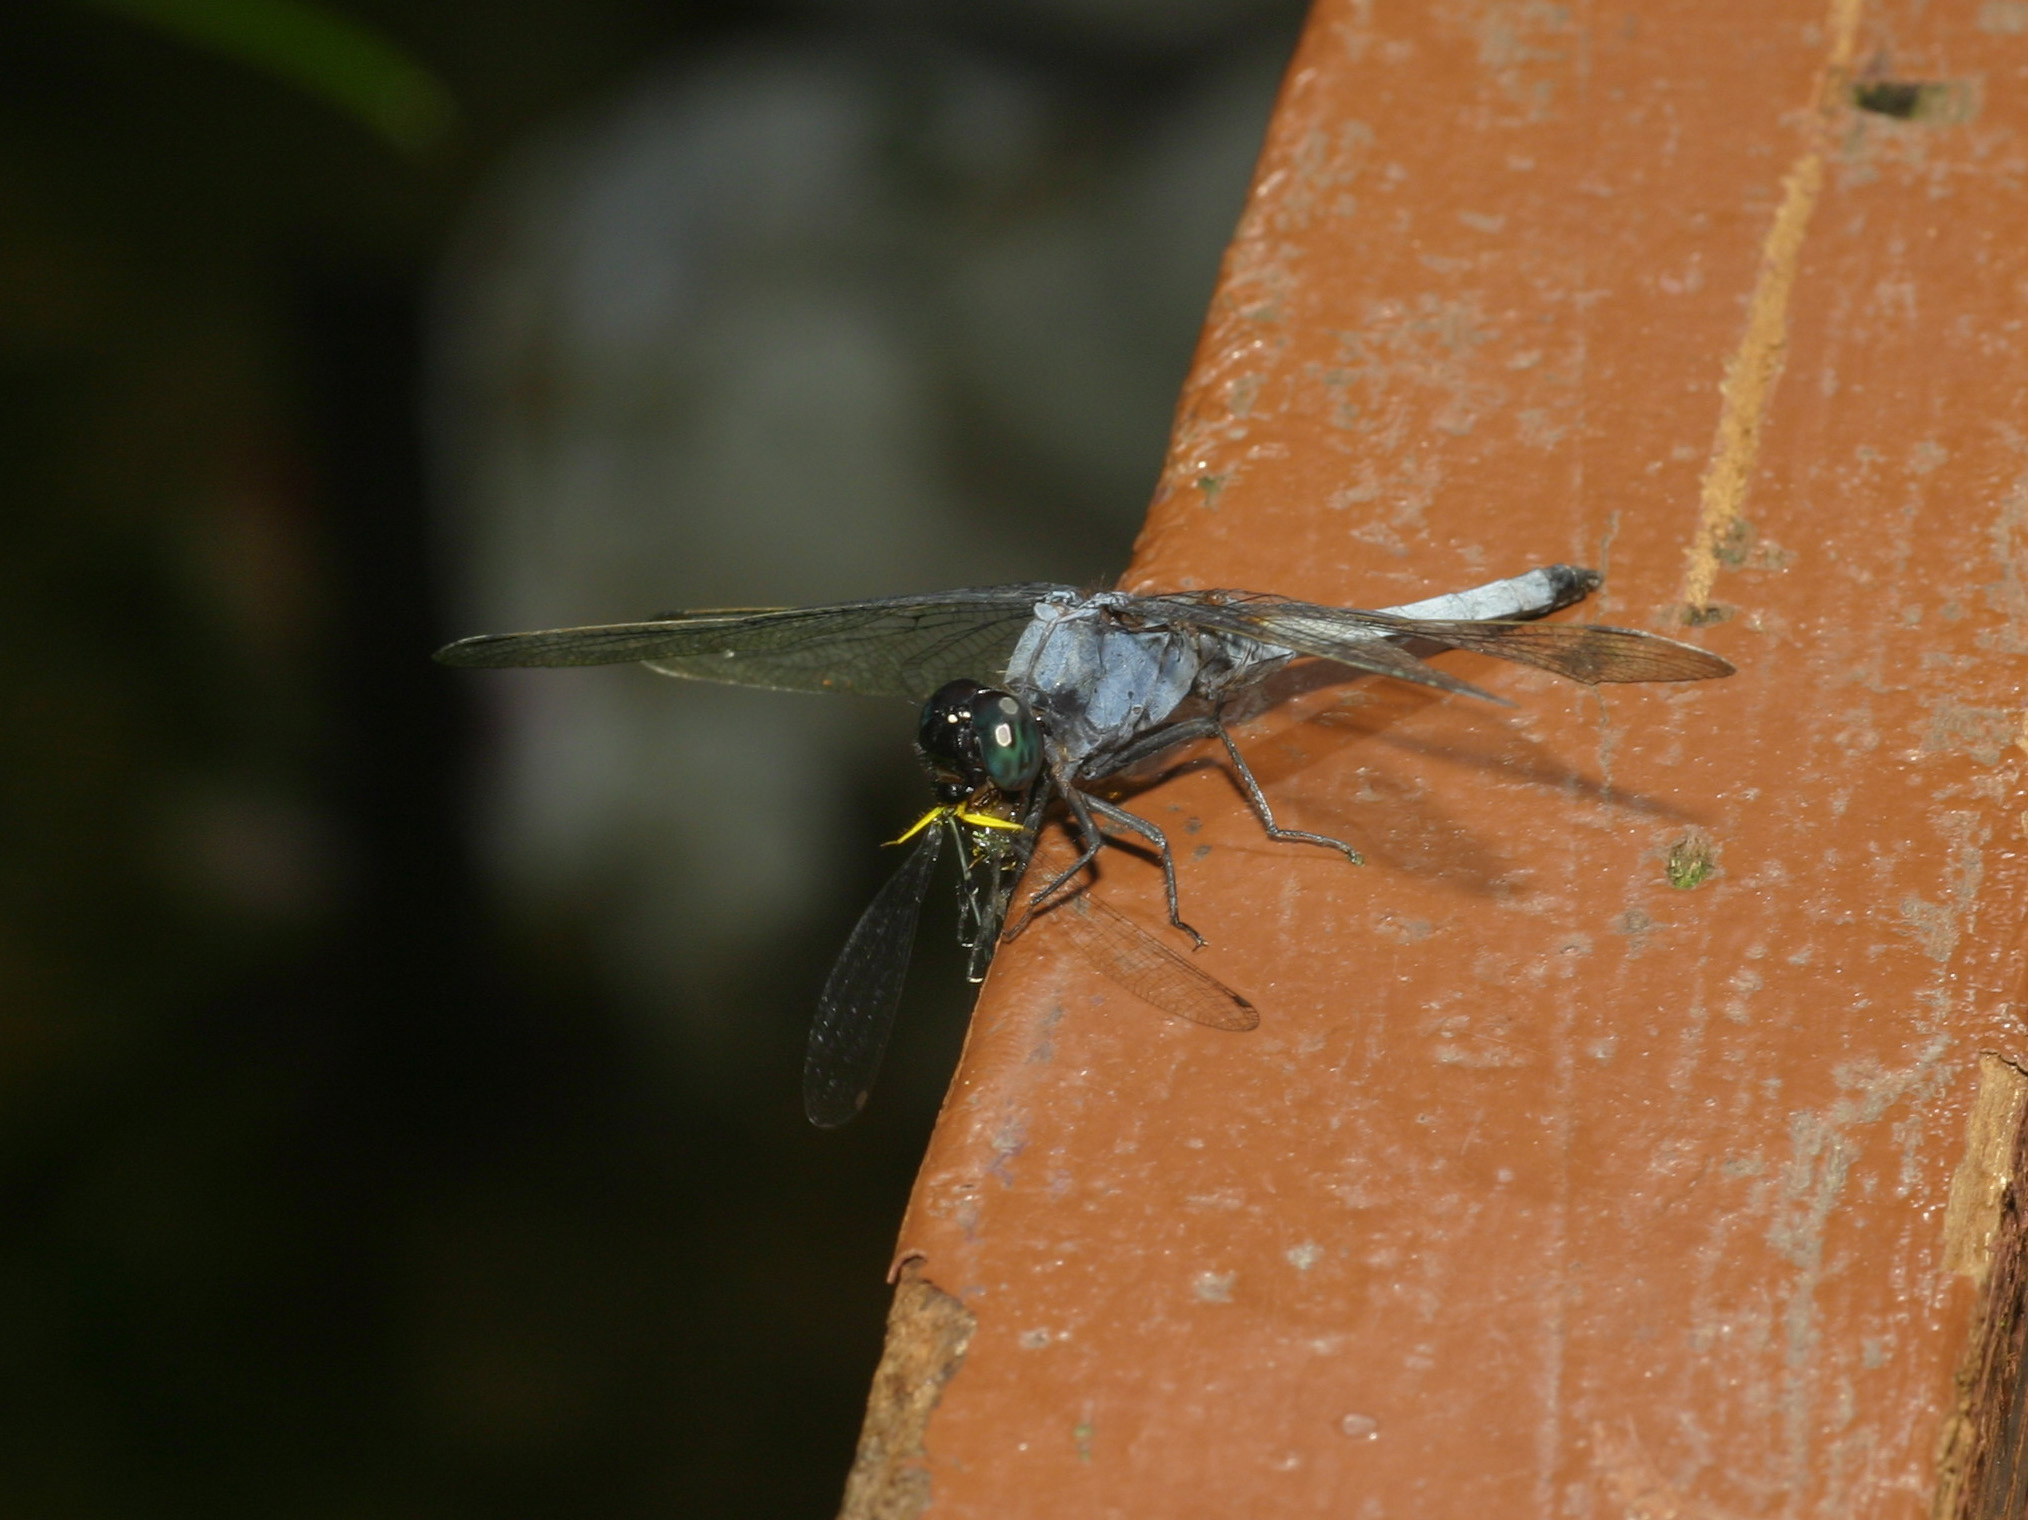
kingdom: Animalia
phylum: Arthropoda
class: Insecta
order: Odonata
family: Libellulidae
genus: Orthetrum
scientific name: Orthetrum glaucum
